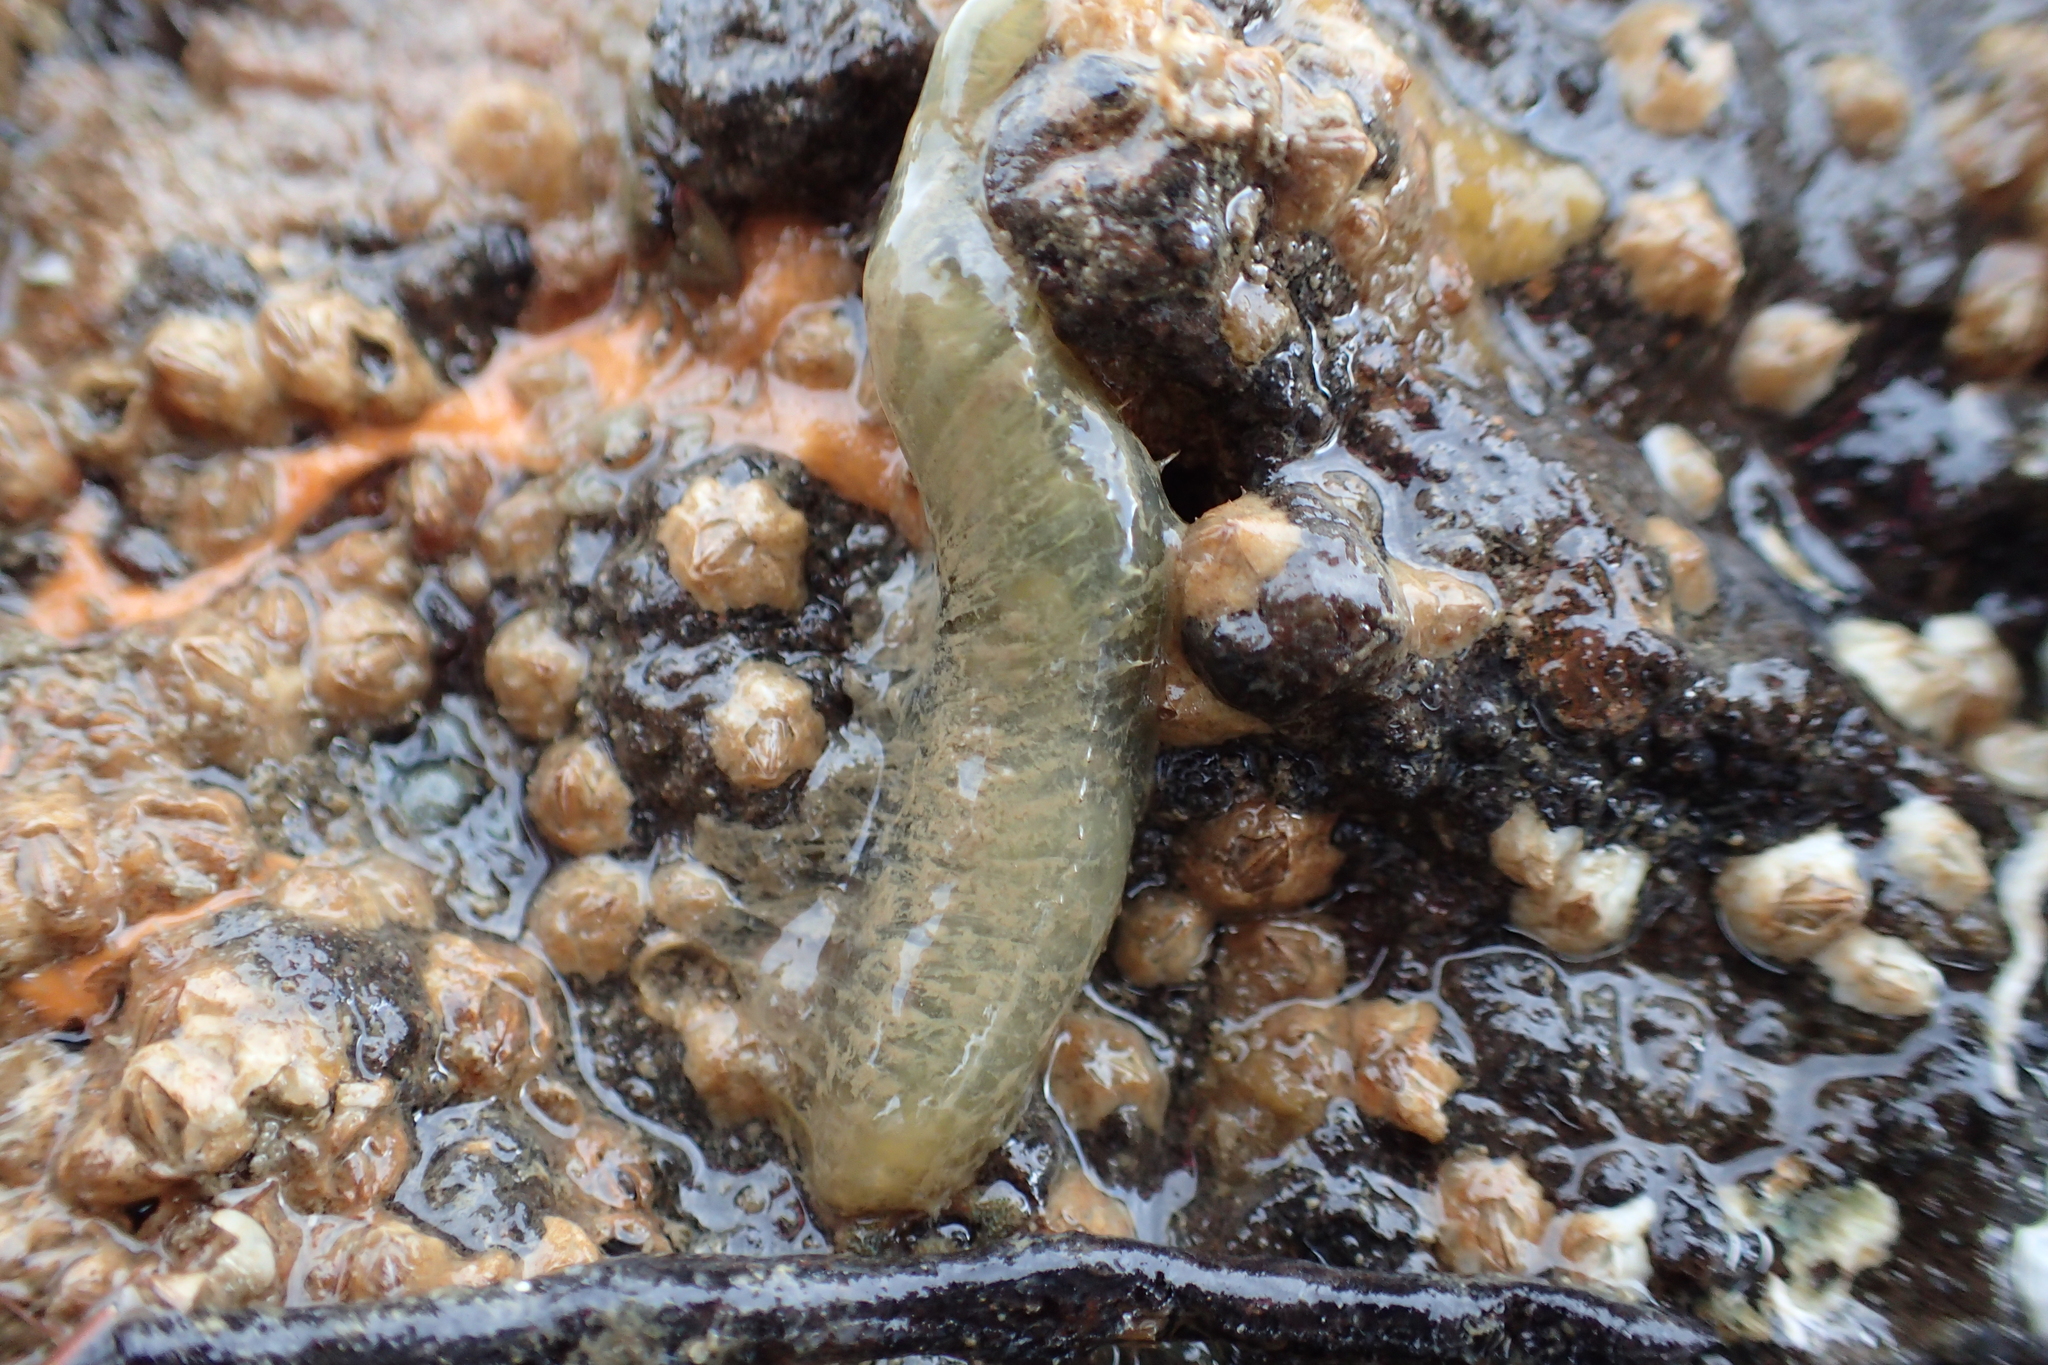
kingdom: Animalia
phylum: Annelida
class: Polychaeta
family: Flabelligeridae
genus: Flabelligera
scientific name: Flabelligera bicolor
